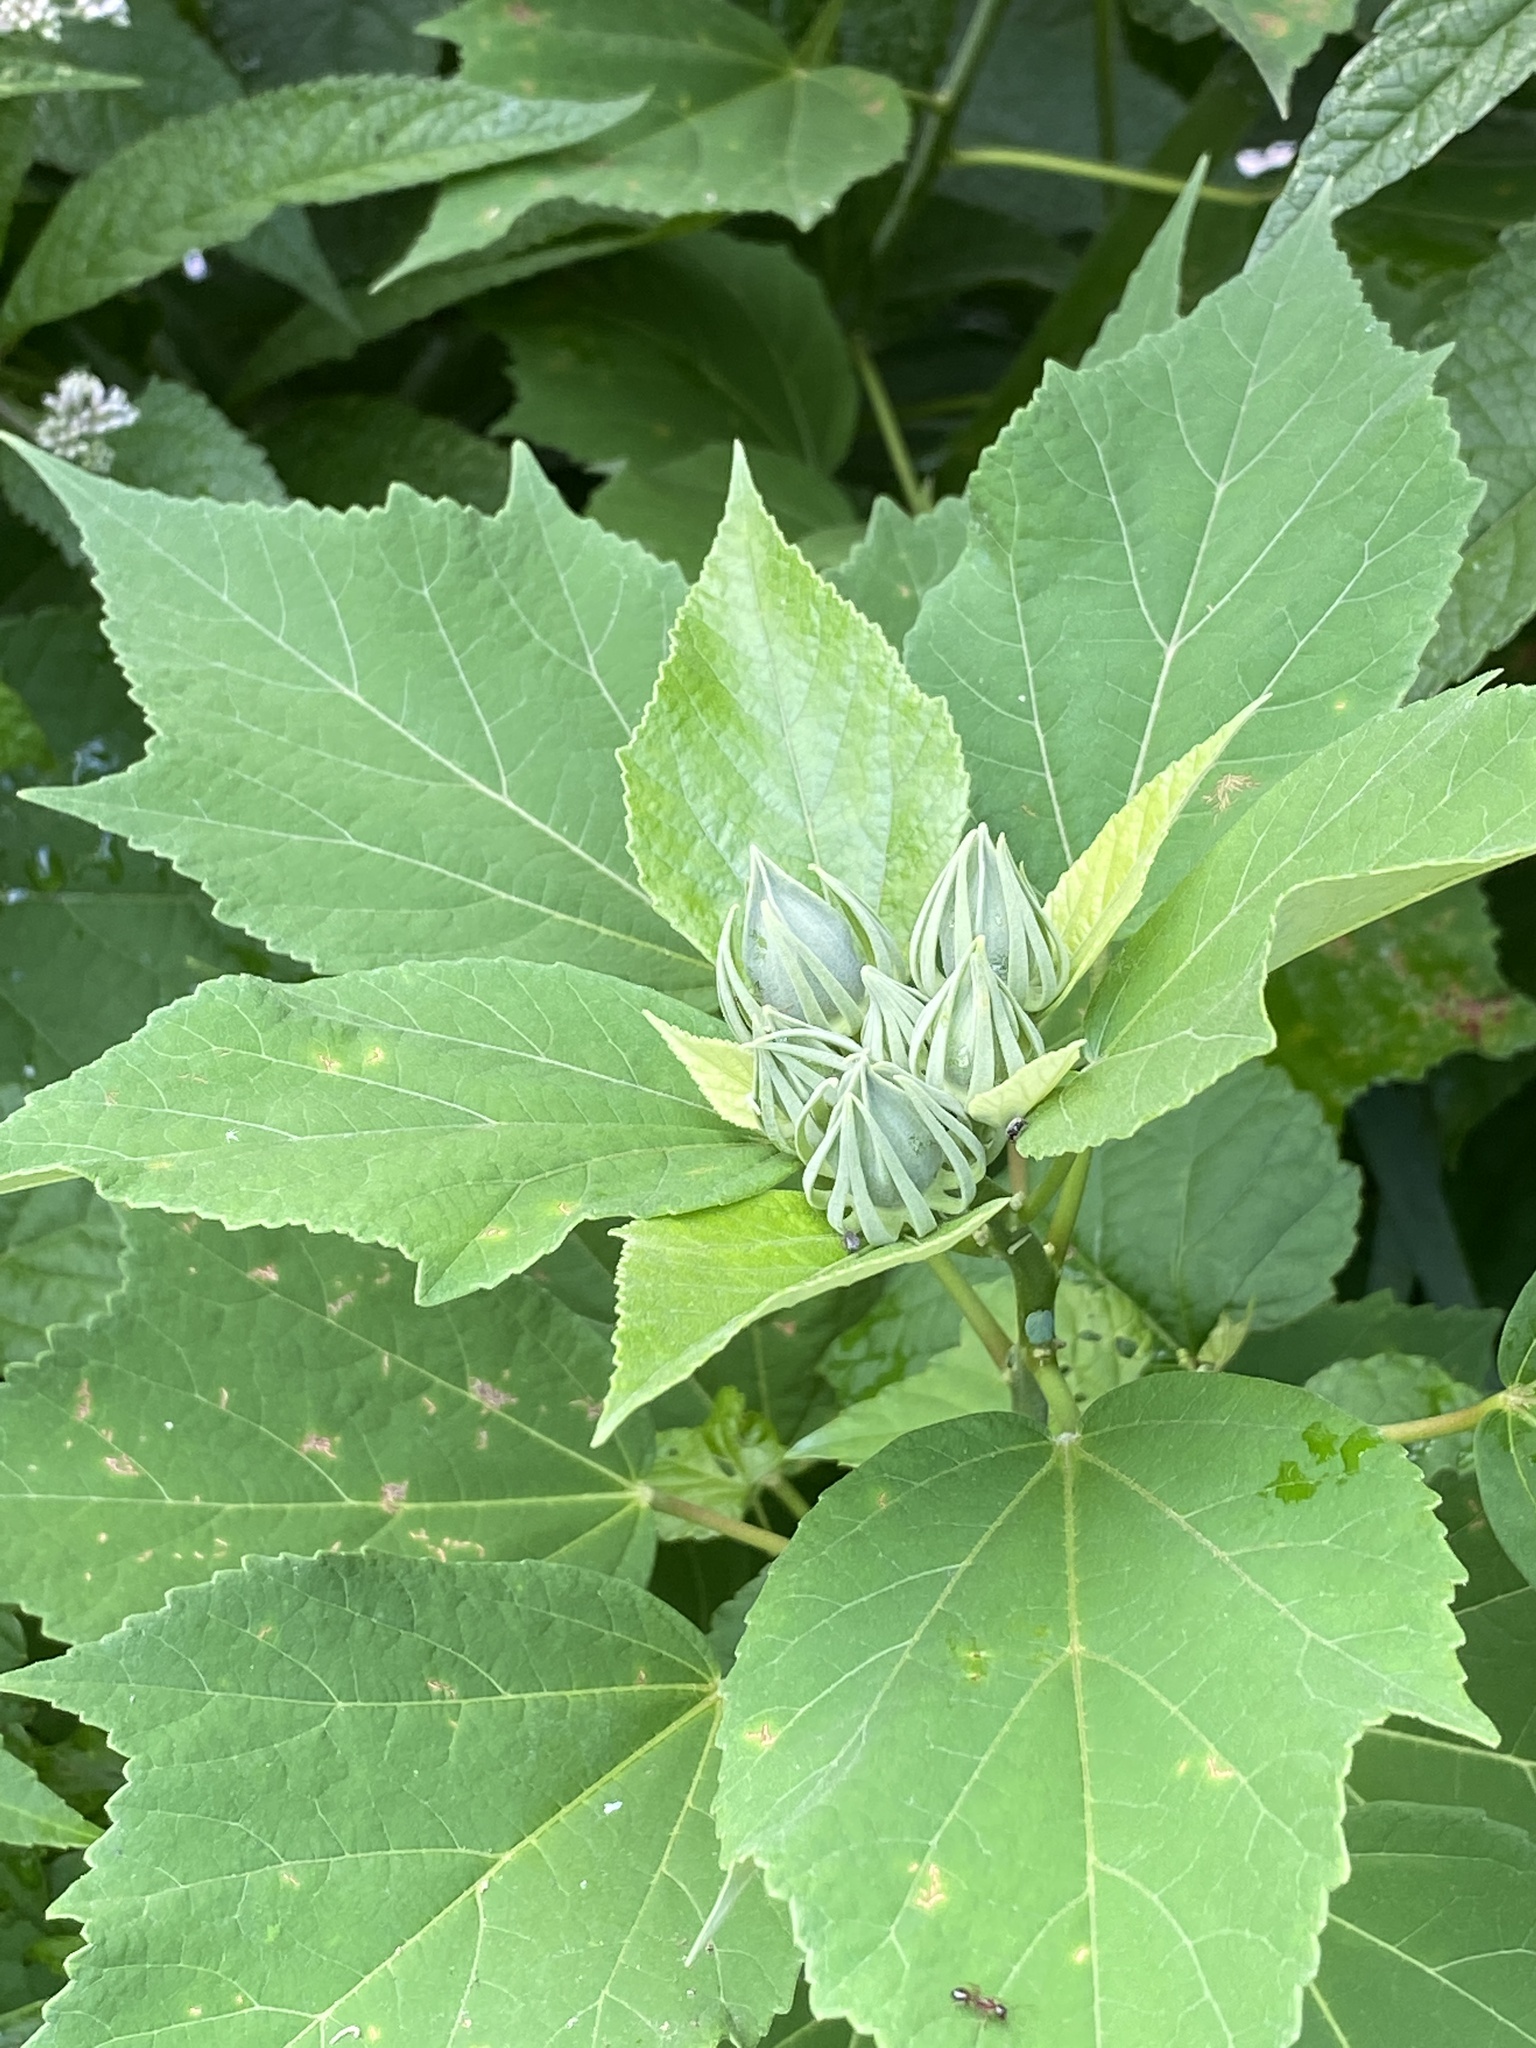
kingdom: Plantae
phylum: Tracheophyta
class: Magnoliopsida
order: Malvales
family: Malvaceae
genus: Hibiscus
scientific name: Hibiscus moscheutos
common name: Common rose-mallow
